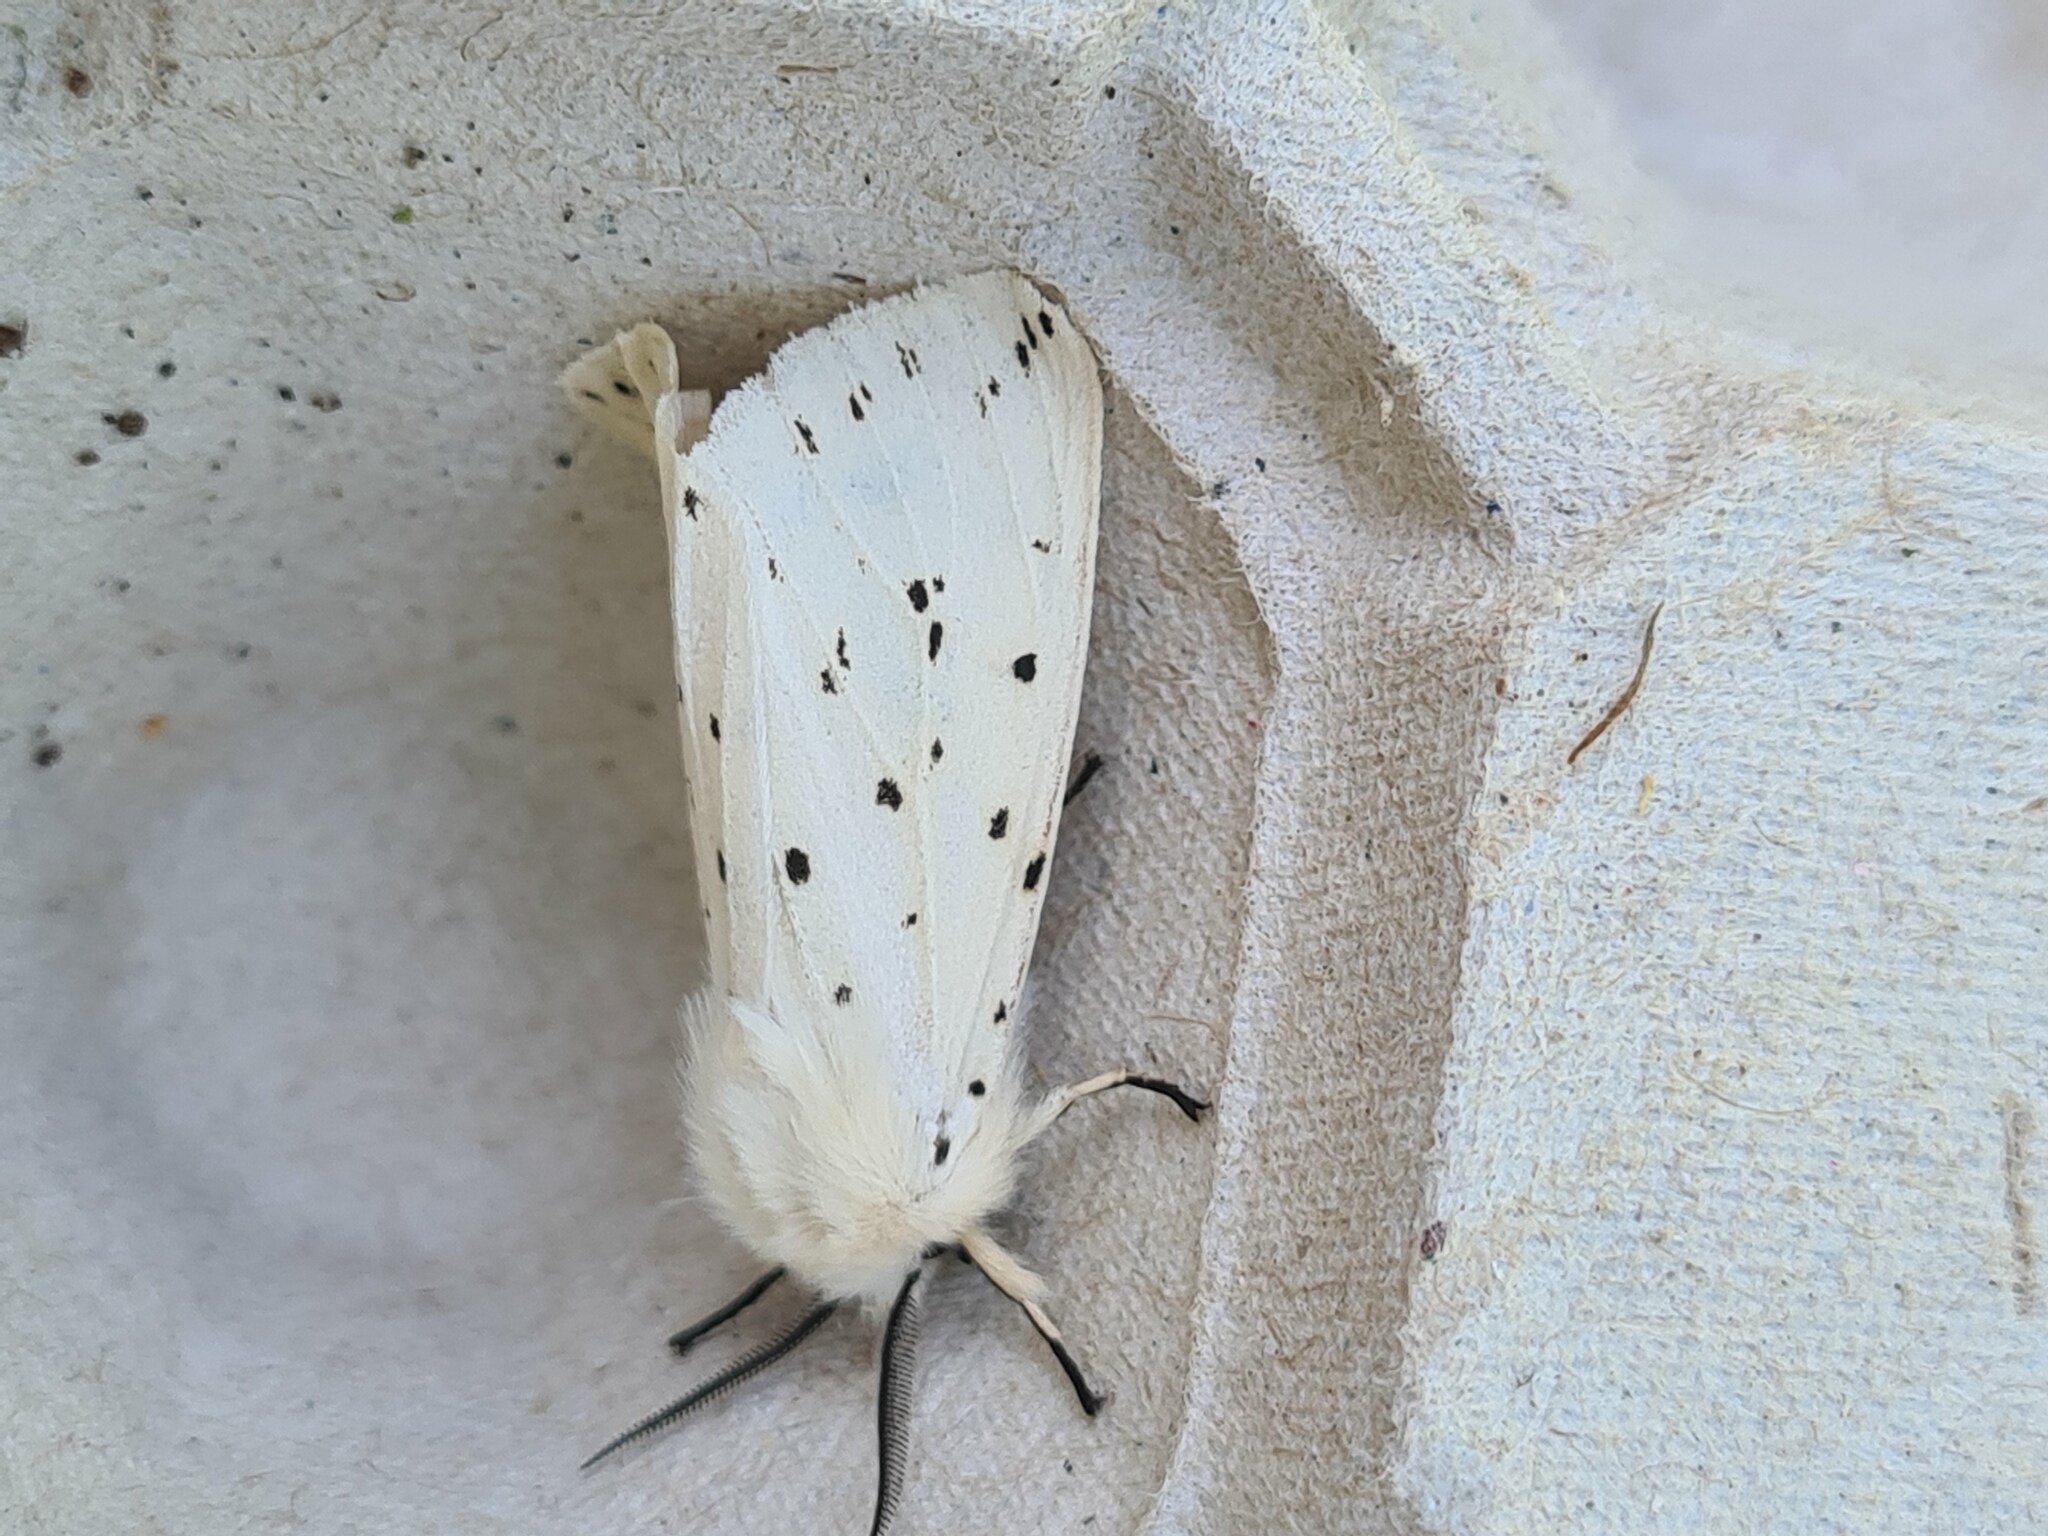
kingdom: Animalia
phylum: Arthropoda
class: Insecta
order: Lepidoptera
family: Erebidae
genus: Spilosoma
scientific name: Spilosoma lubricipeda
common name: White ermine
